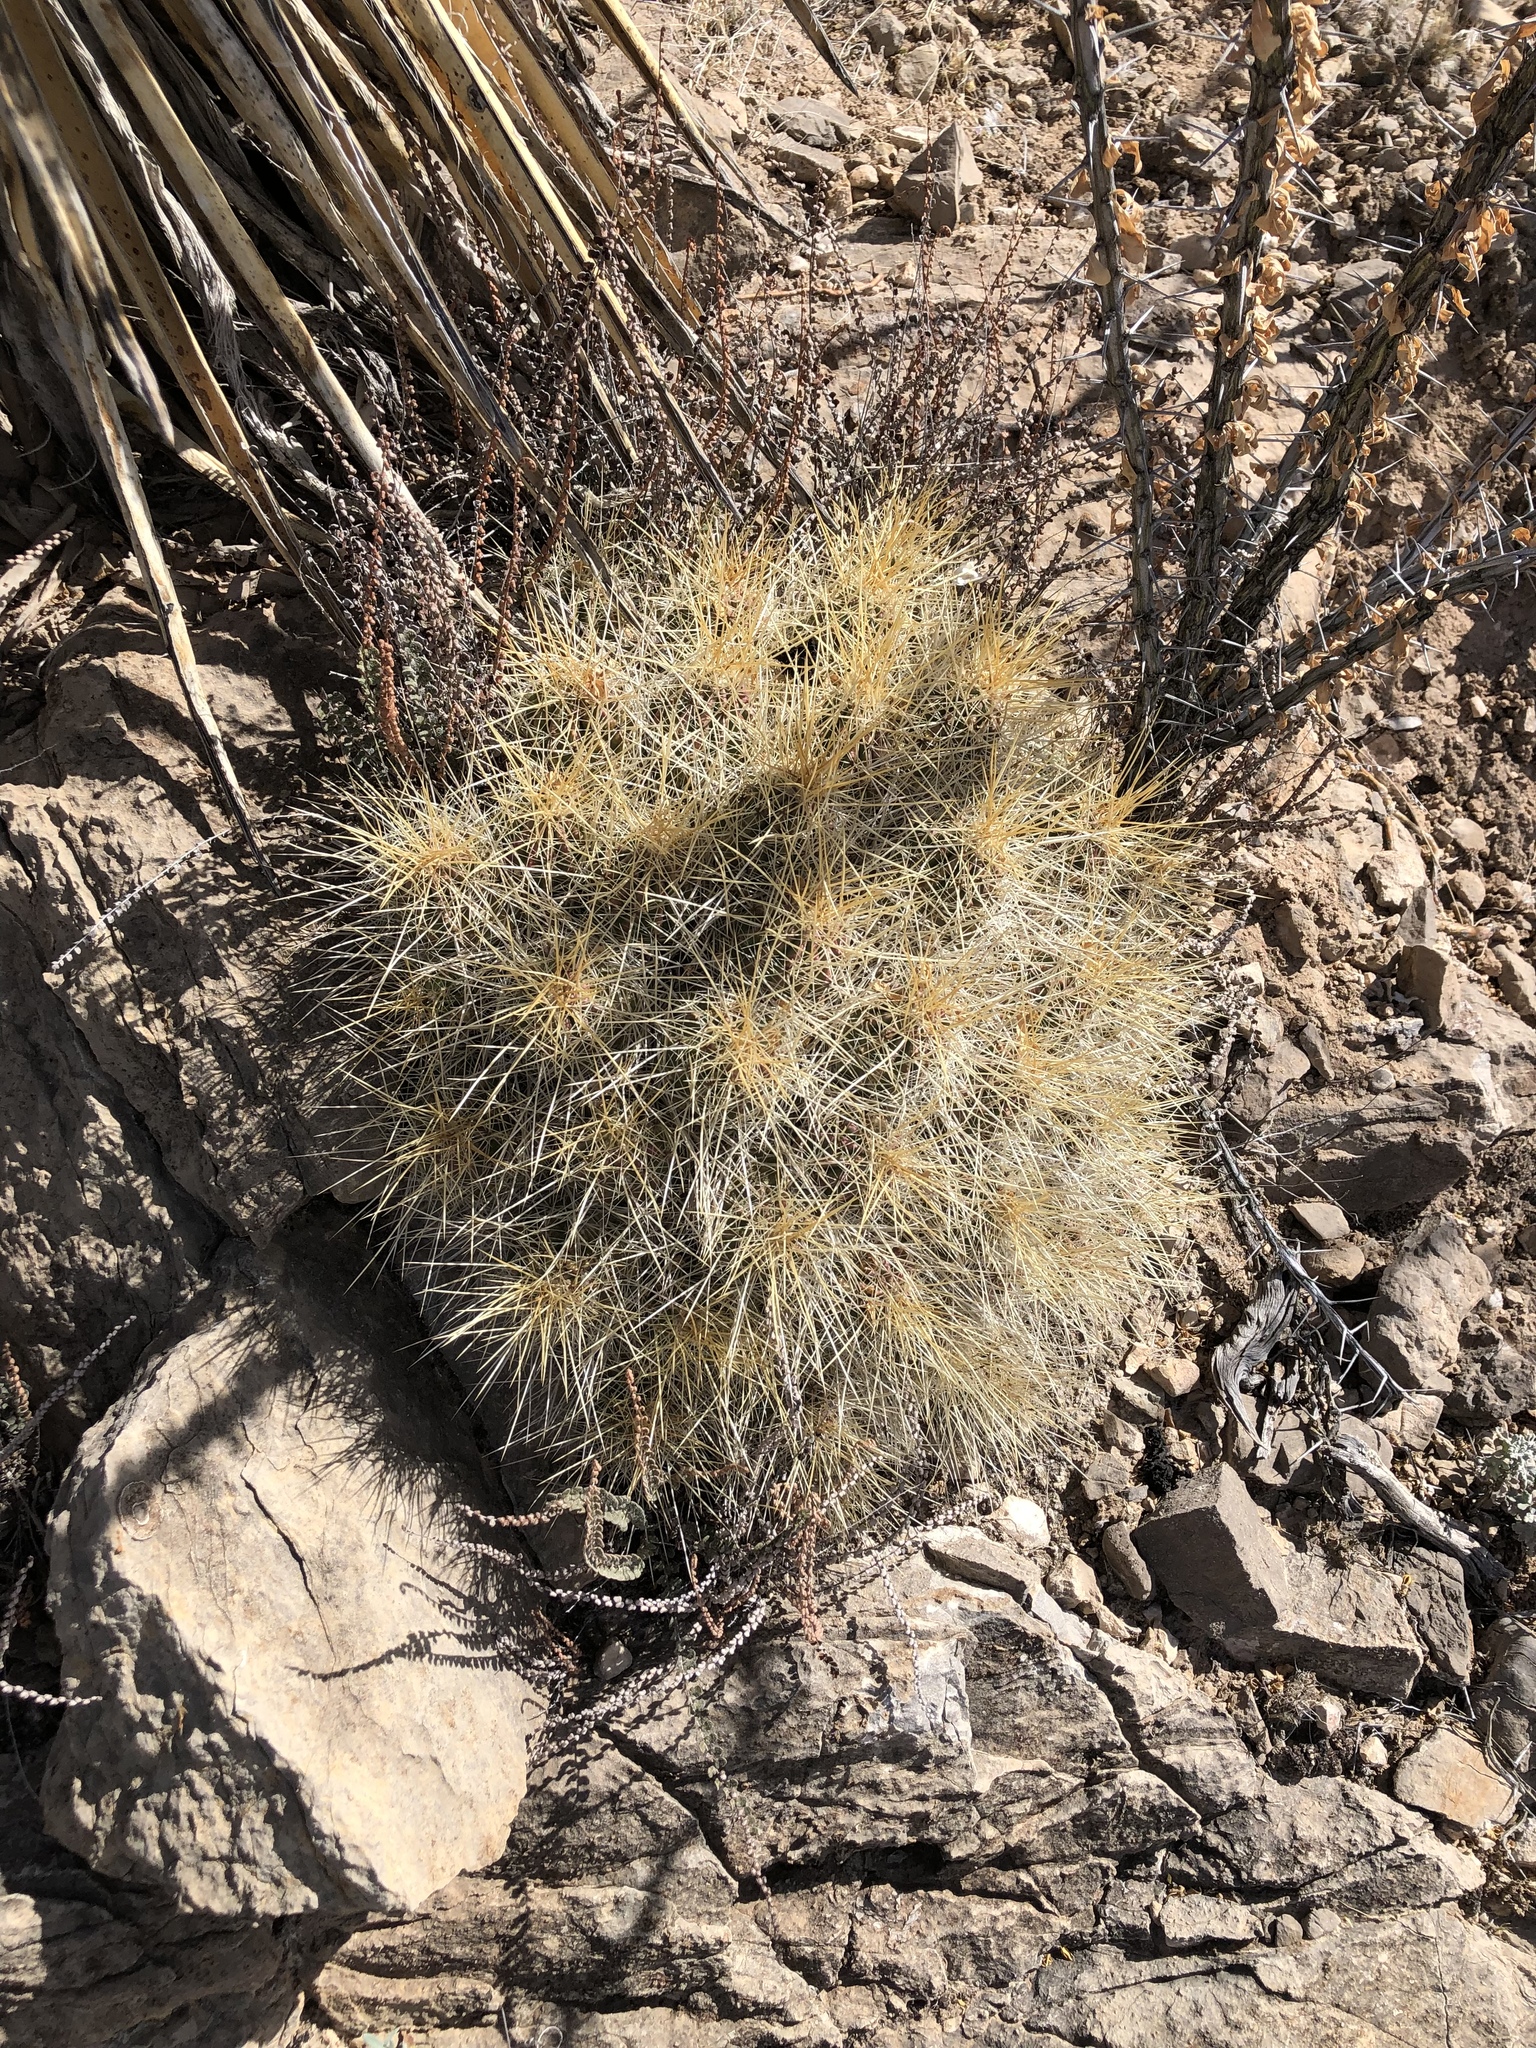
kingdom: Plantae
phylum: Tracheophyta
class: Magnoliopsida
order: Caryophyllales
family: Cactaceae
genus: Echinocereus
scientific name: Echinocereus stramineus
